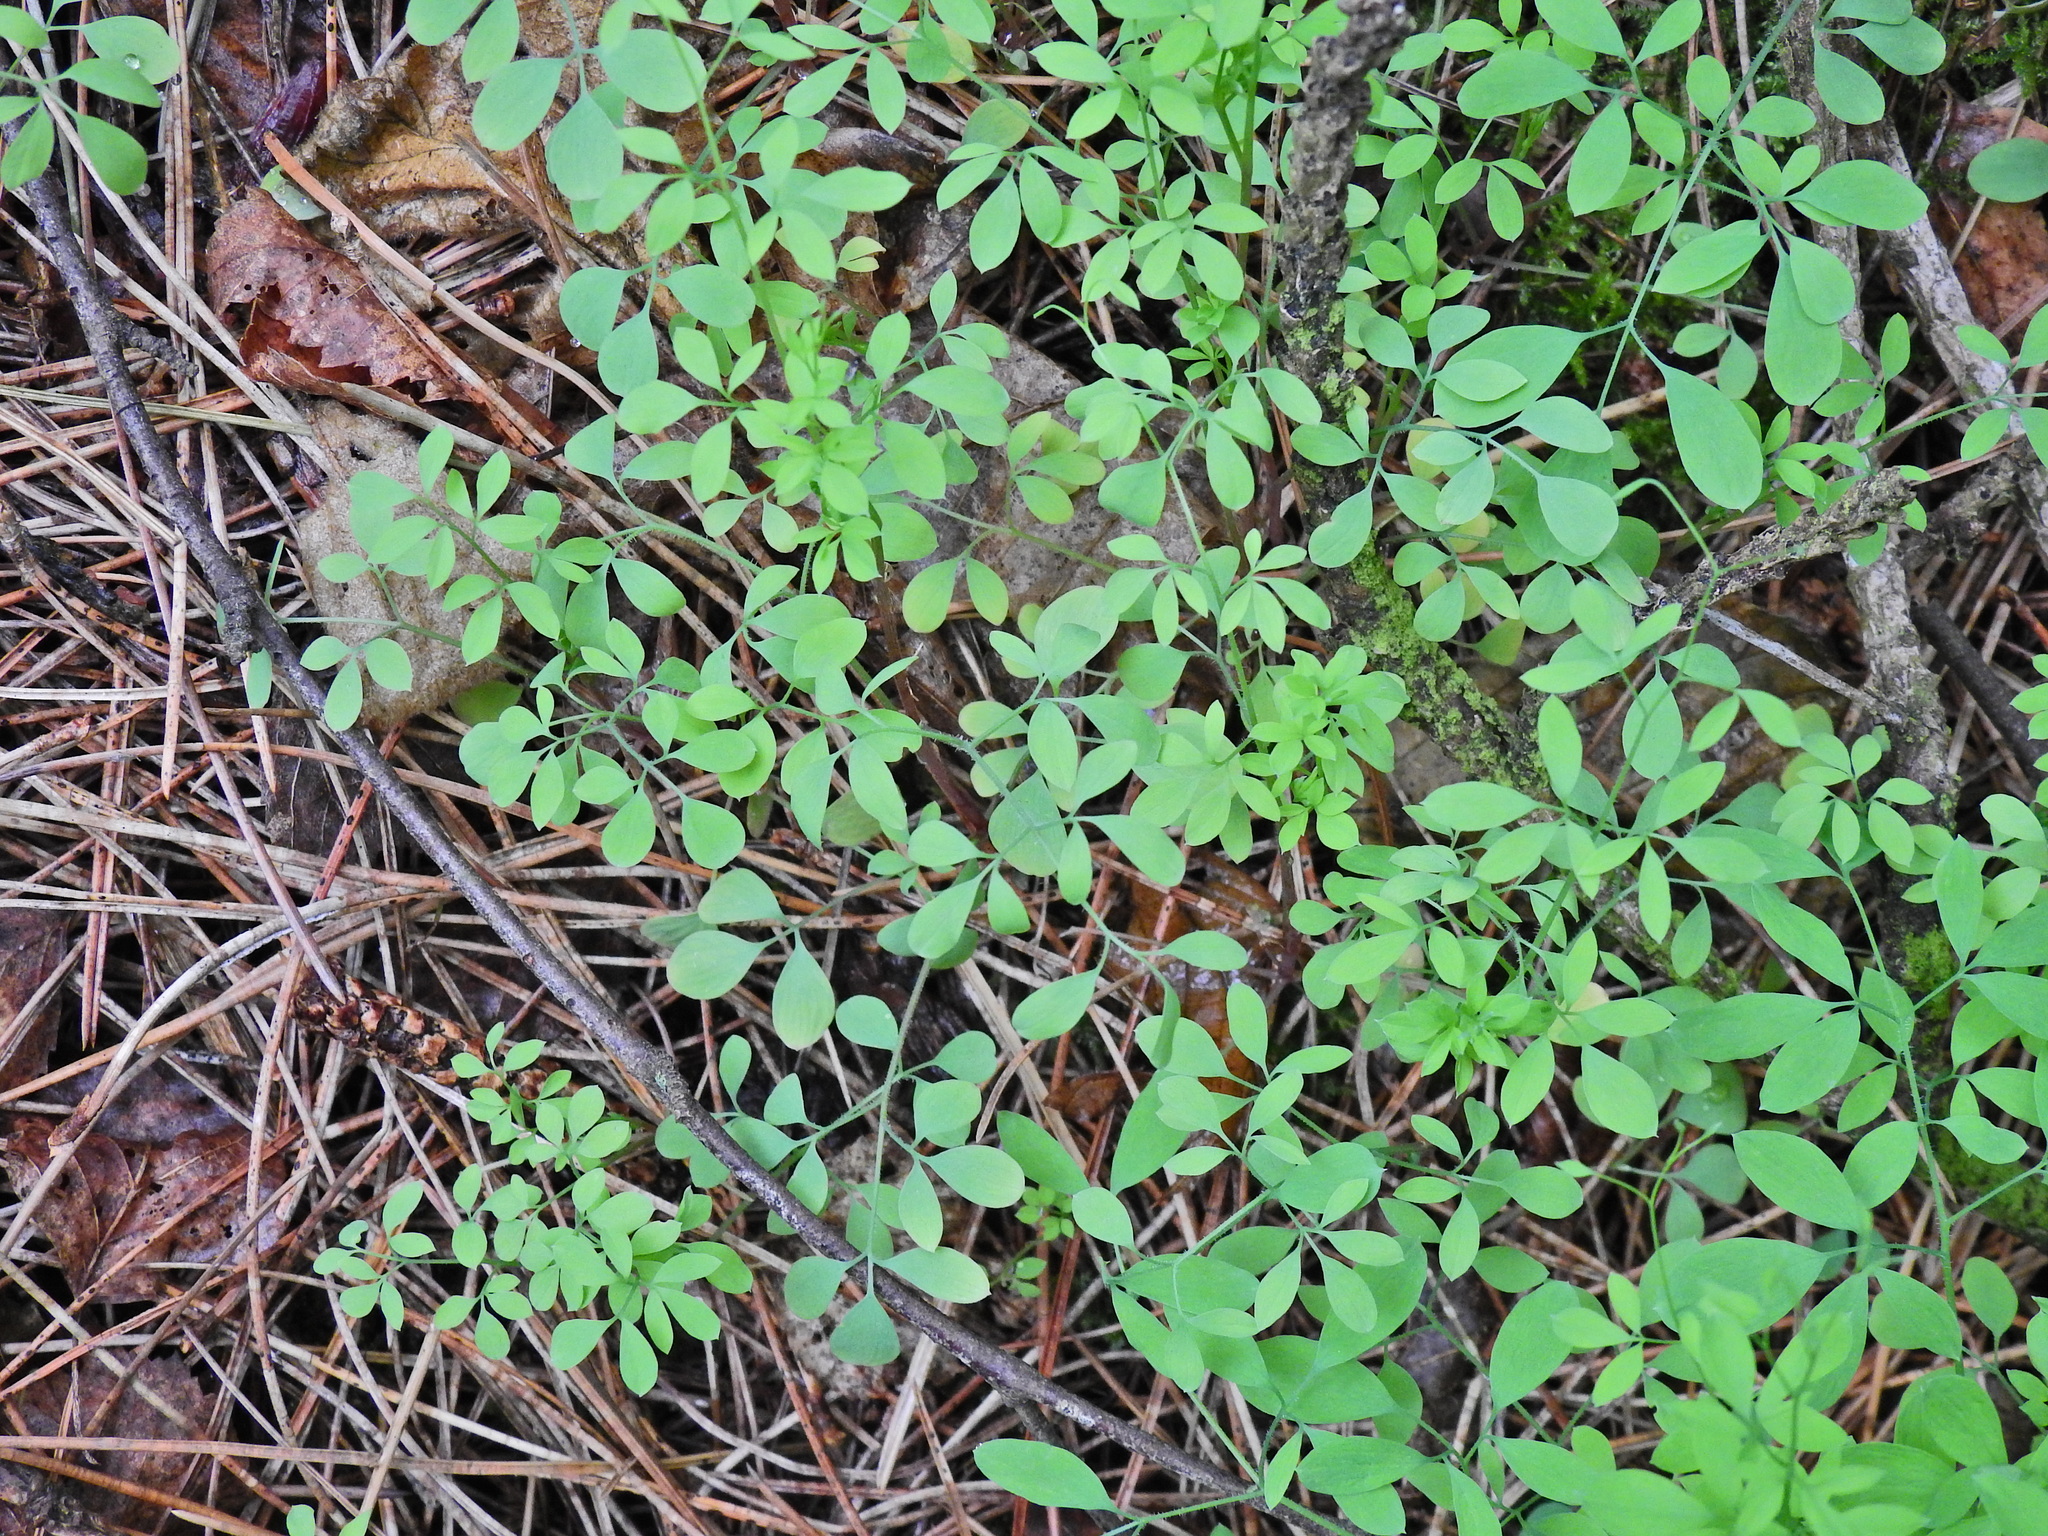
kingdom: Plantae
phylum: Tracheophyta
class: Magnoliopsida
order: Ranunculales
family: Papaveraceae
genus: Ceratocapnos
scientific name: Ceratocapnos claviculata
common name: Climbing corydalis
